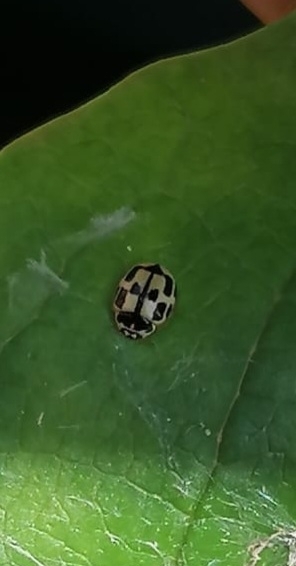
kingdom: Animalia
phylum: Arthropoda
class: Insecta
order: Coleoptera
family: Coccinellidae
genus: Propylaea
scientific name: Propylaea quatuordecimpunctata
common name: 14-spotted ladybird beetle
